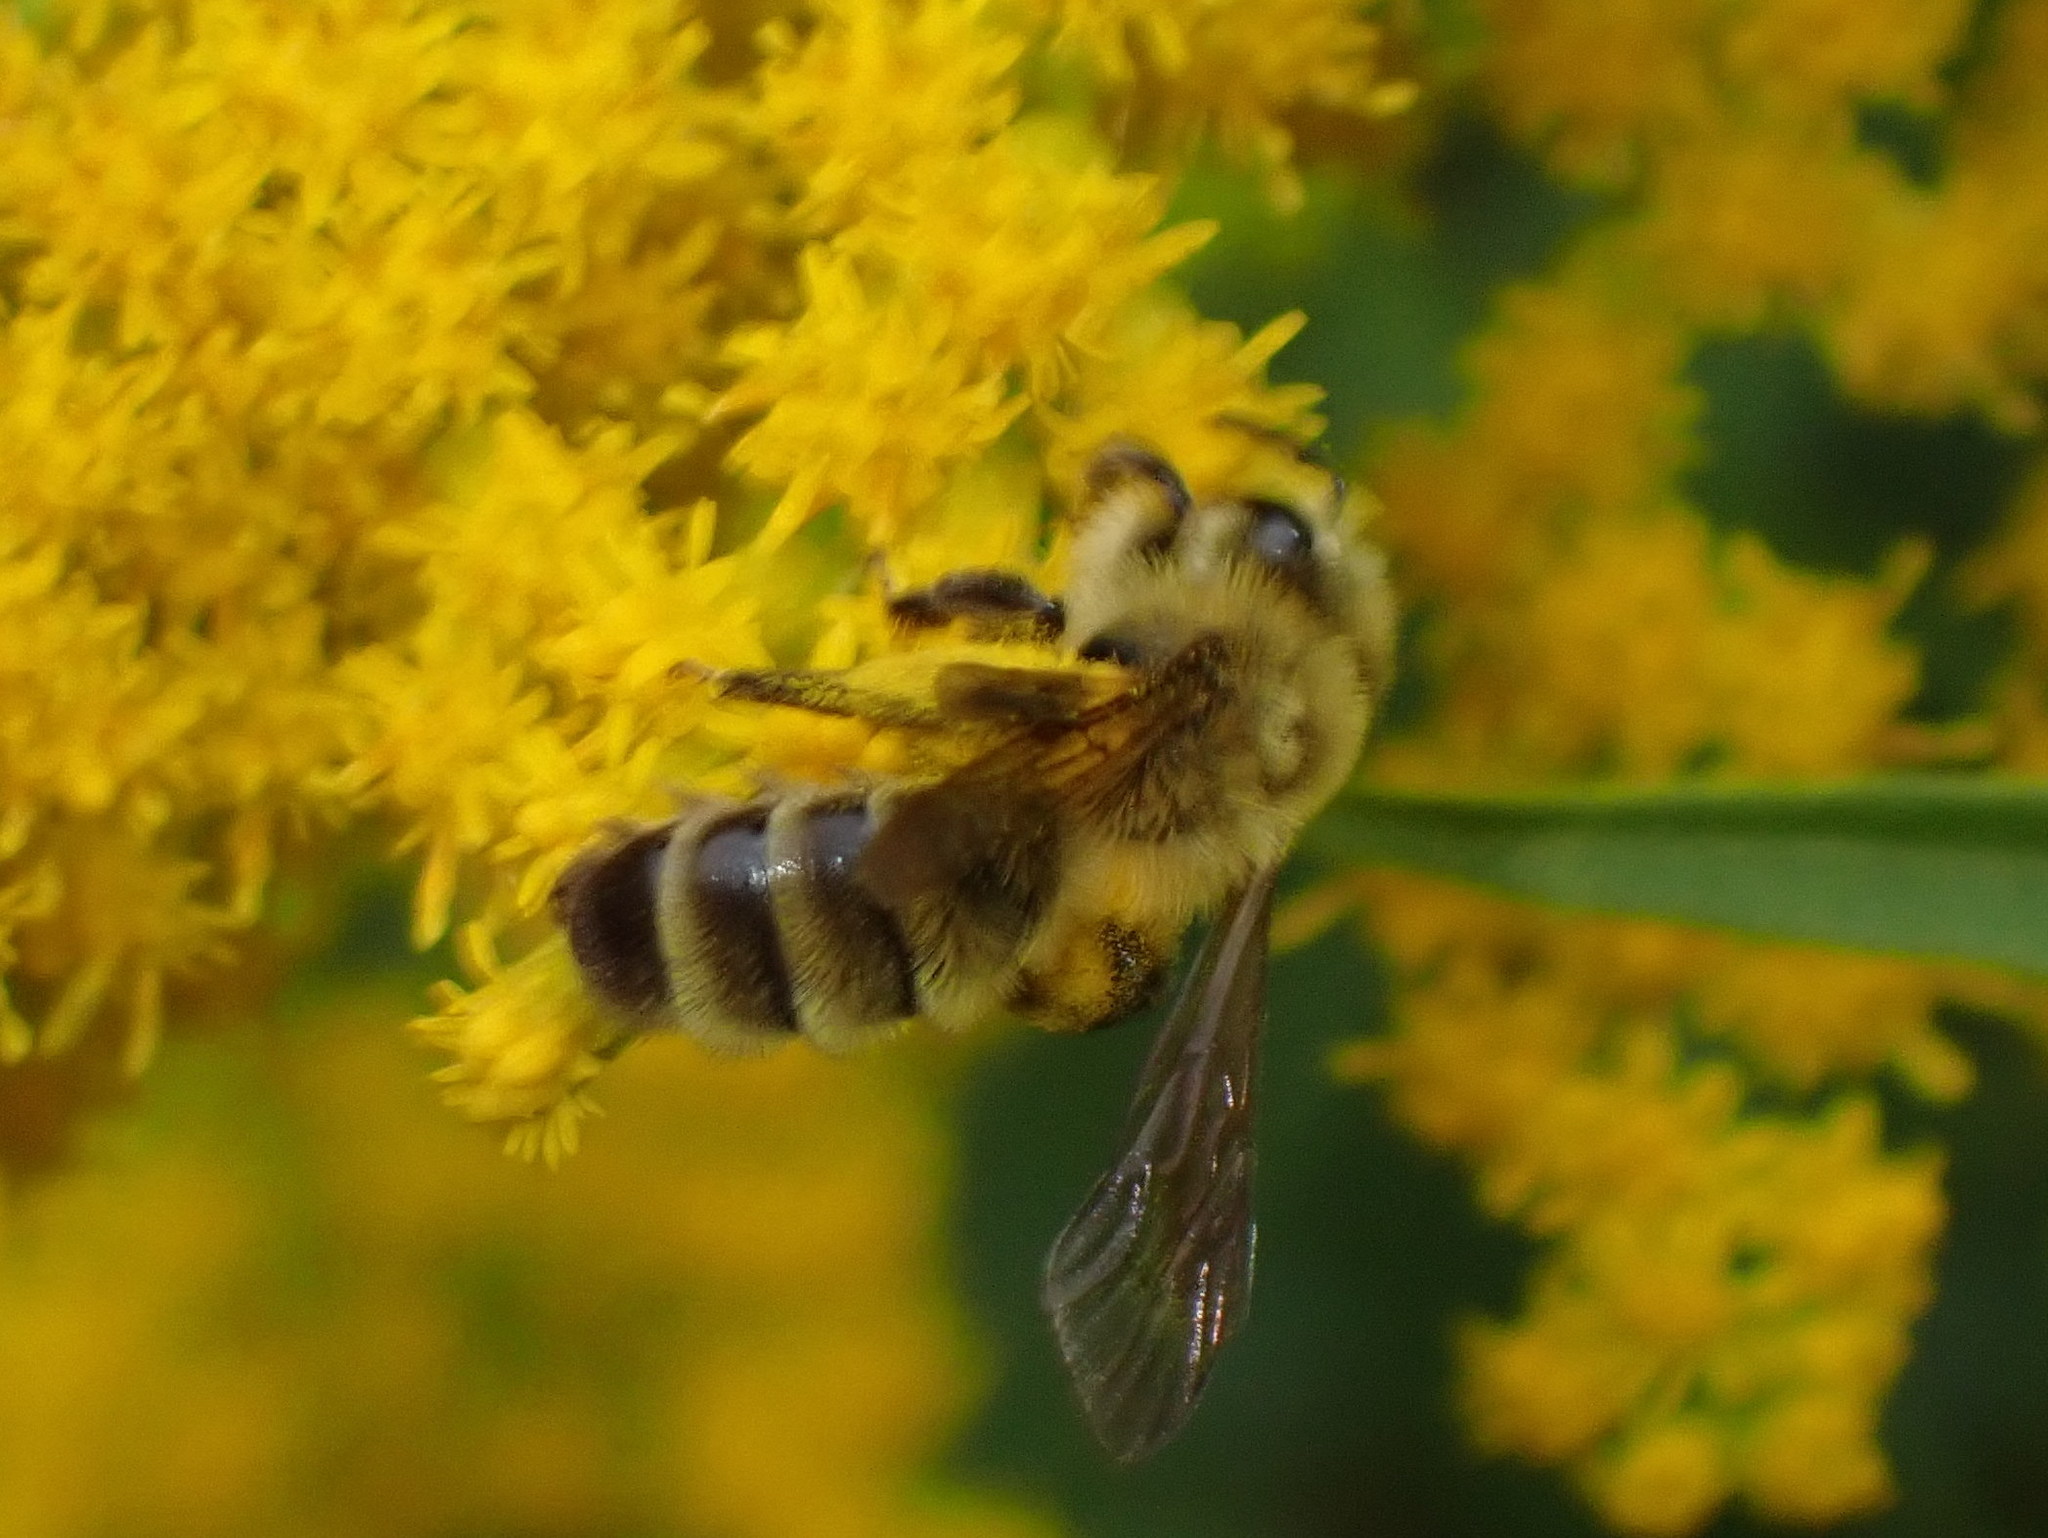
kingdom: Animalia
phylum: Arthropoda
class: Insecta
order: Hymenoptera
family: Andrenidae
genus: Andrena
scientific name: Andrena hirticincta
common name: Hairy-banded mining bee
